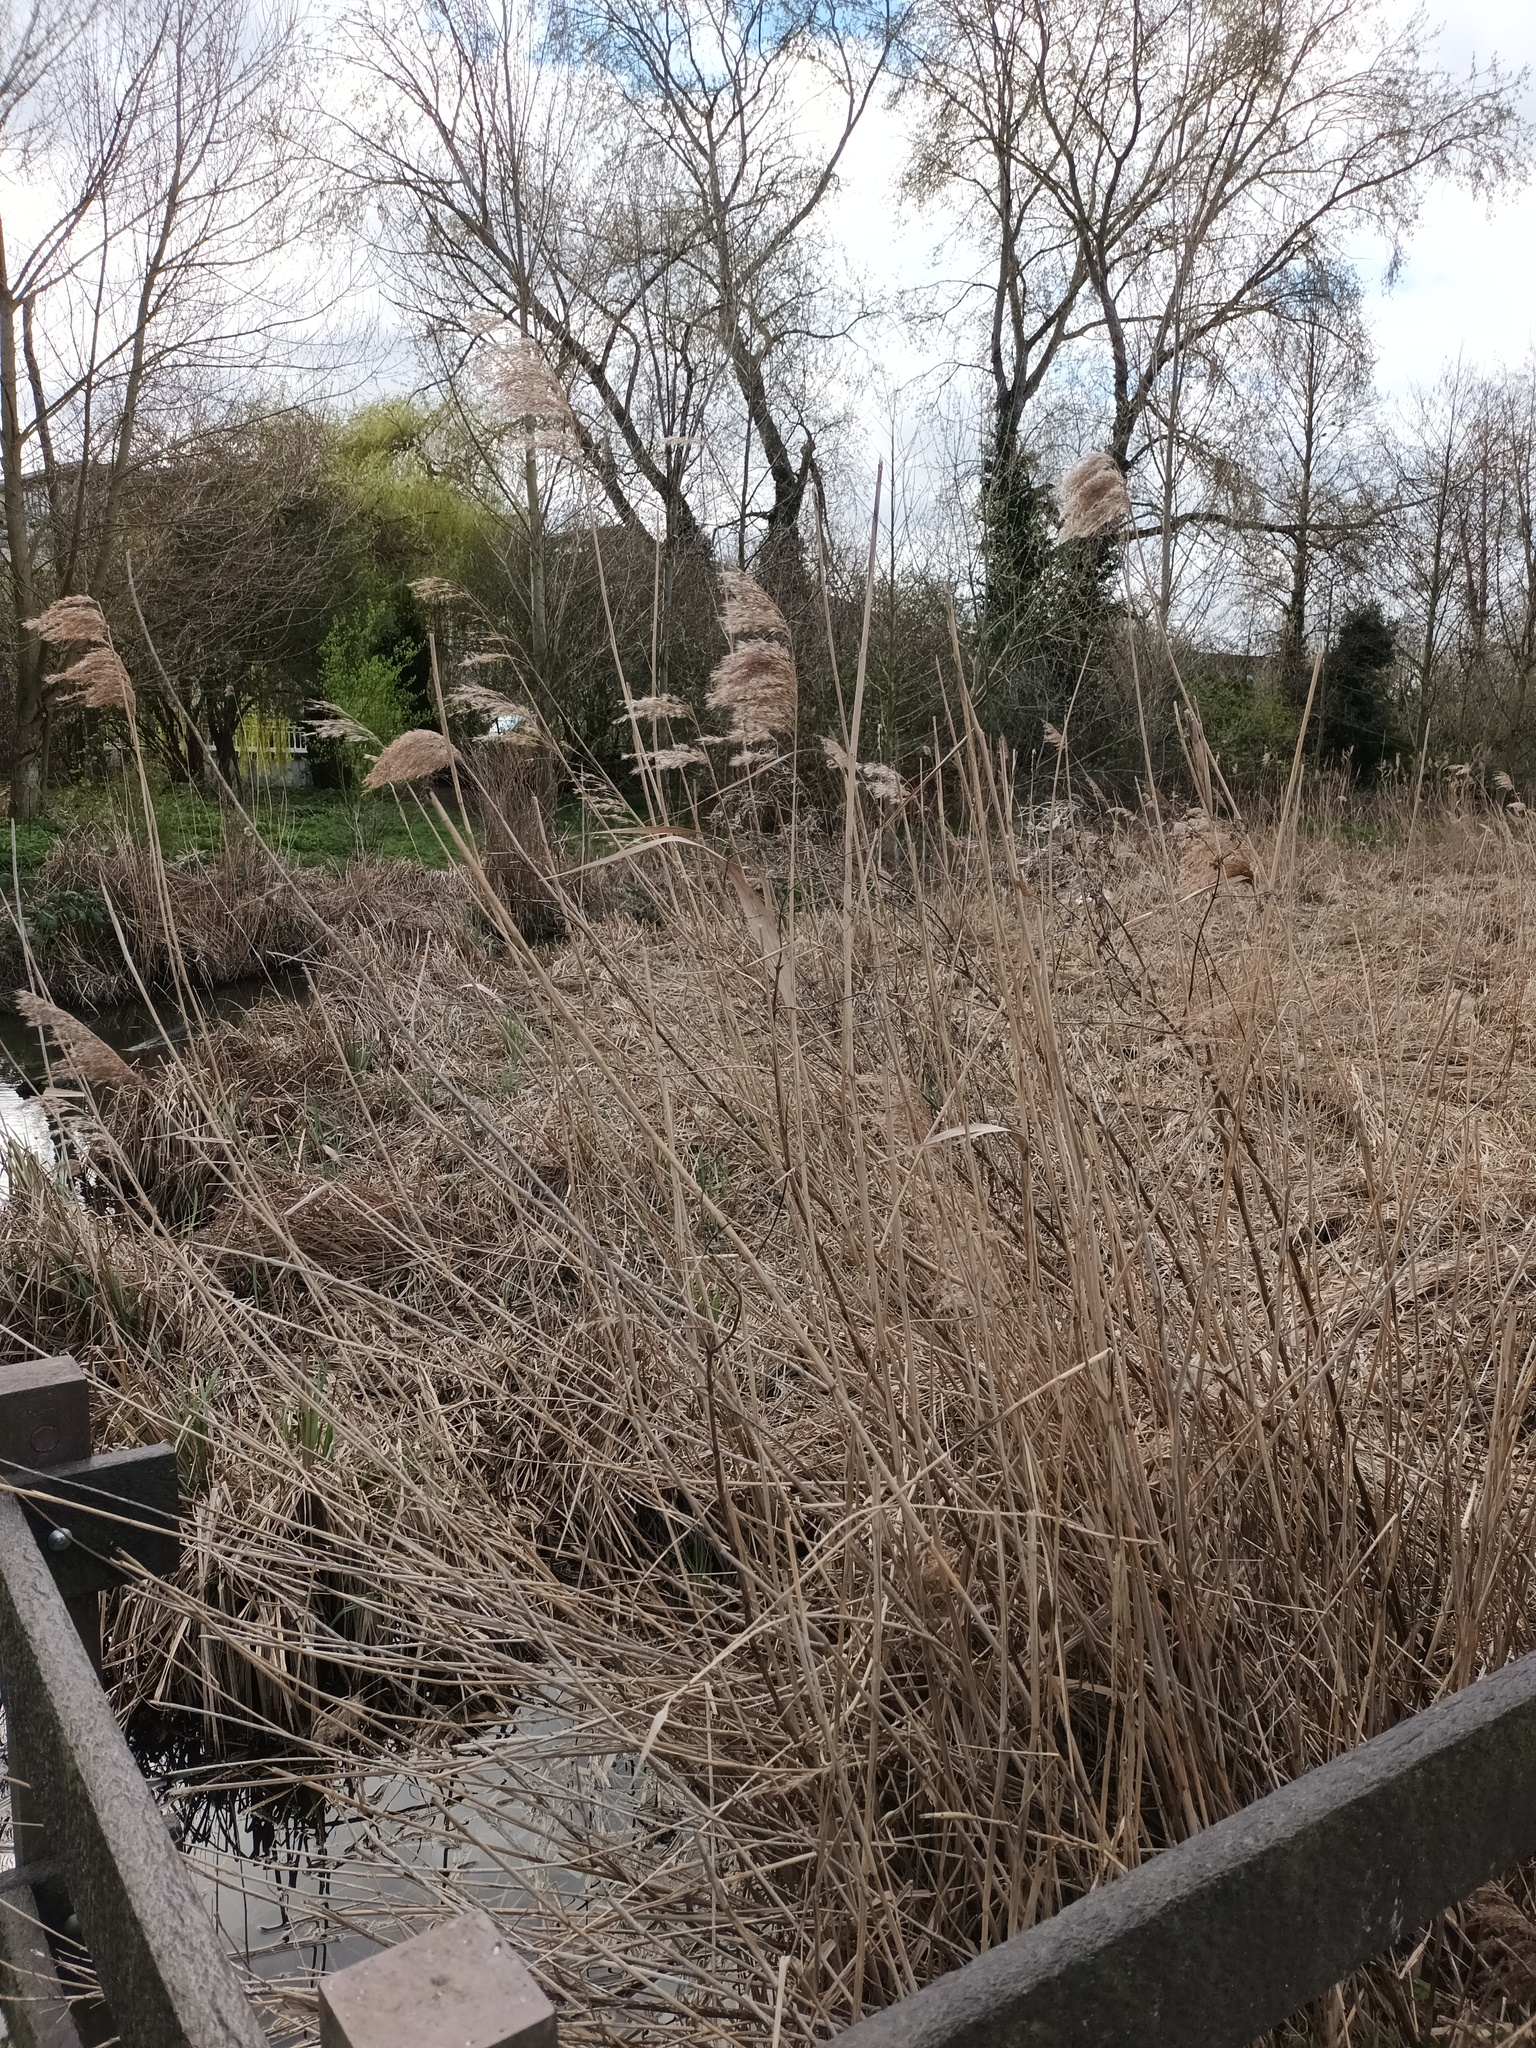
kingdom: Plantae
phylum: Tracheophyta
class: Liliopsida
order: Poales
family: Poaceae
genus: Phragmites
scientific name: Phragmites australis
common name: Common reed
